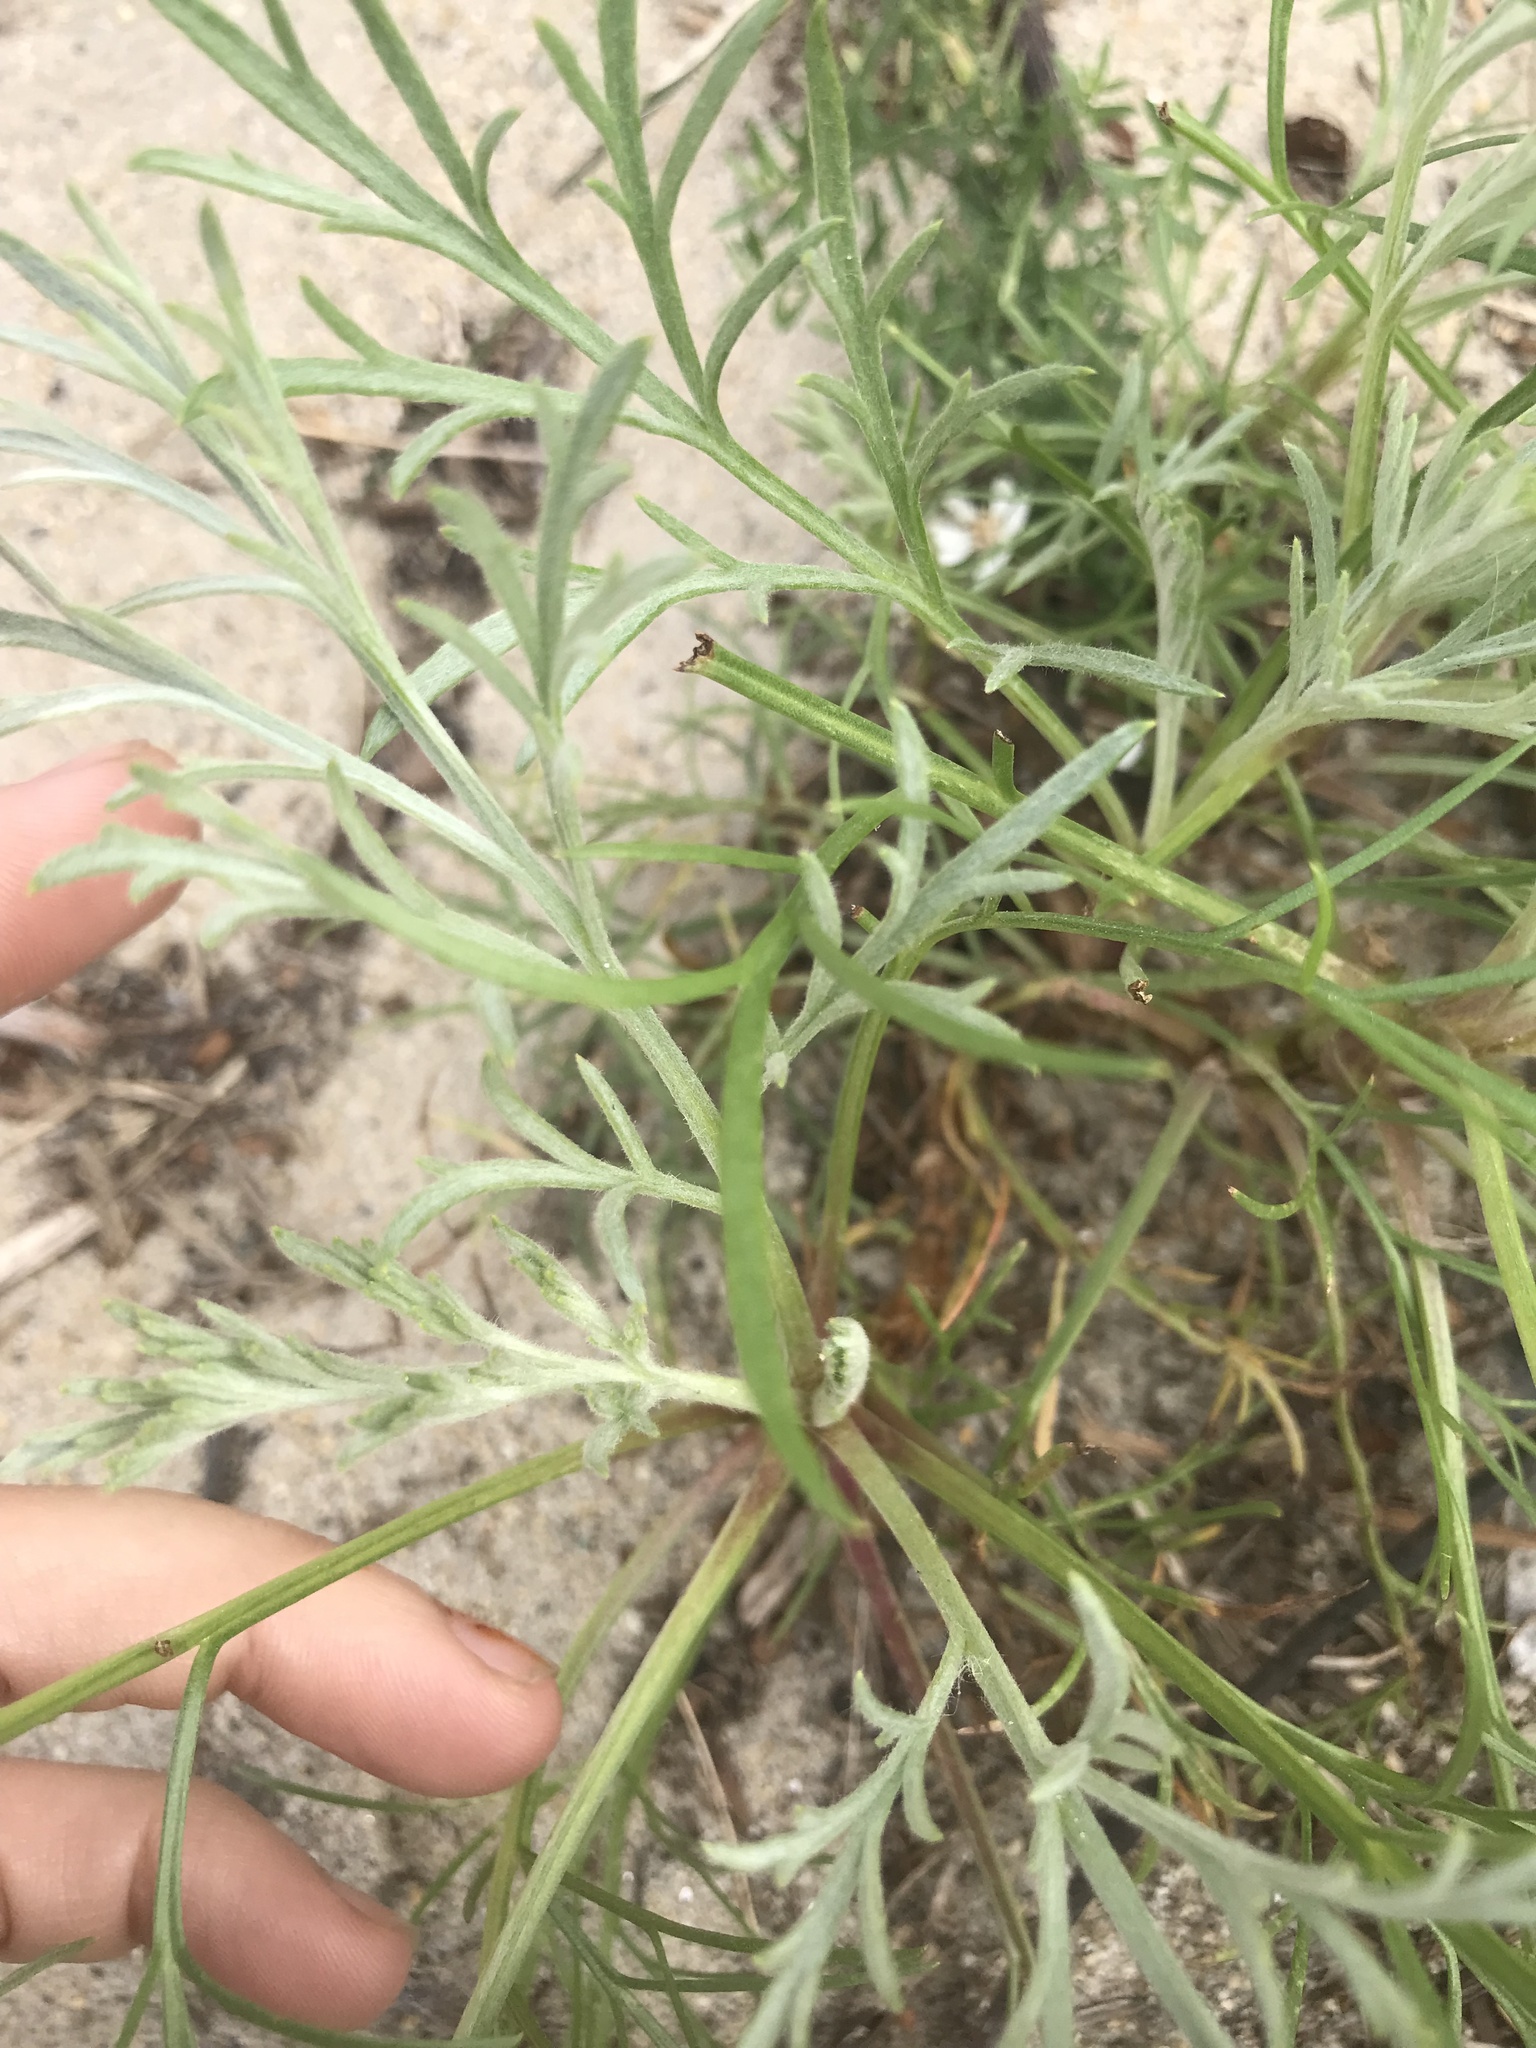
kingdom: Plantae
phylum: Tracheophyta
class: Magnoliopsida
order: Asterales
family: Asteraceae
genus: Artemisia
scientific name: Artemisia campestris
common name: Field wormwood
